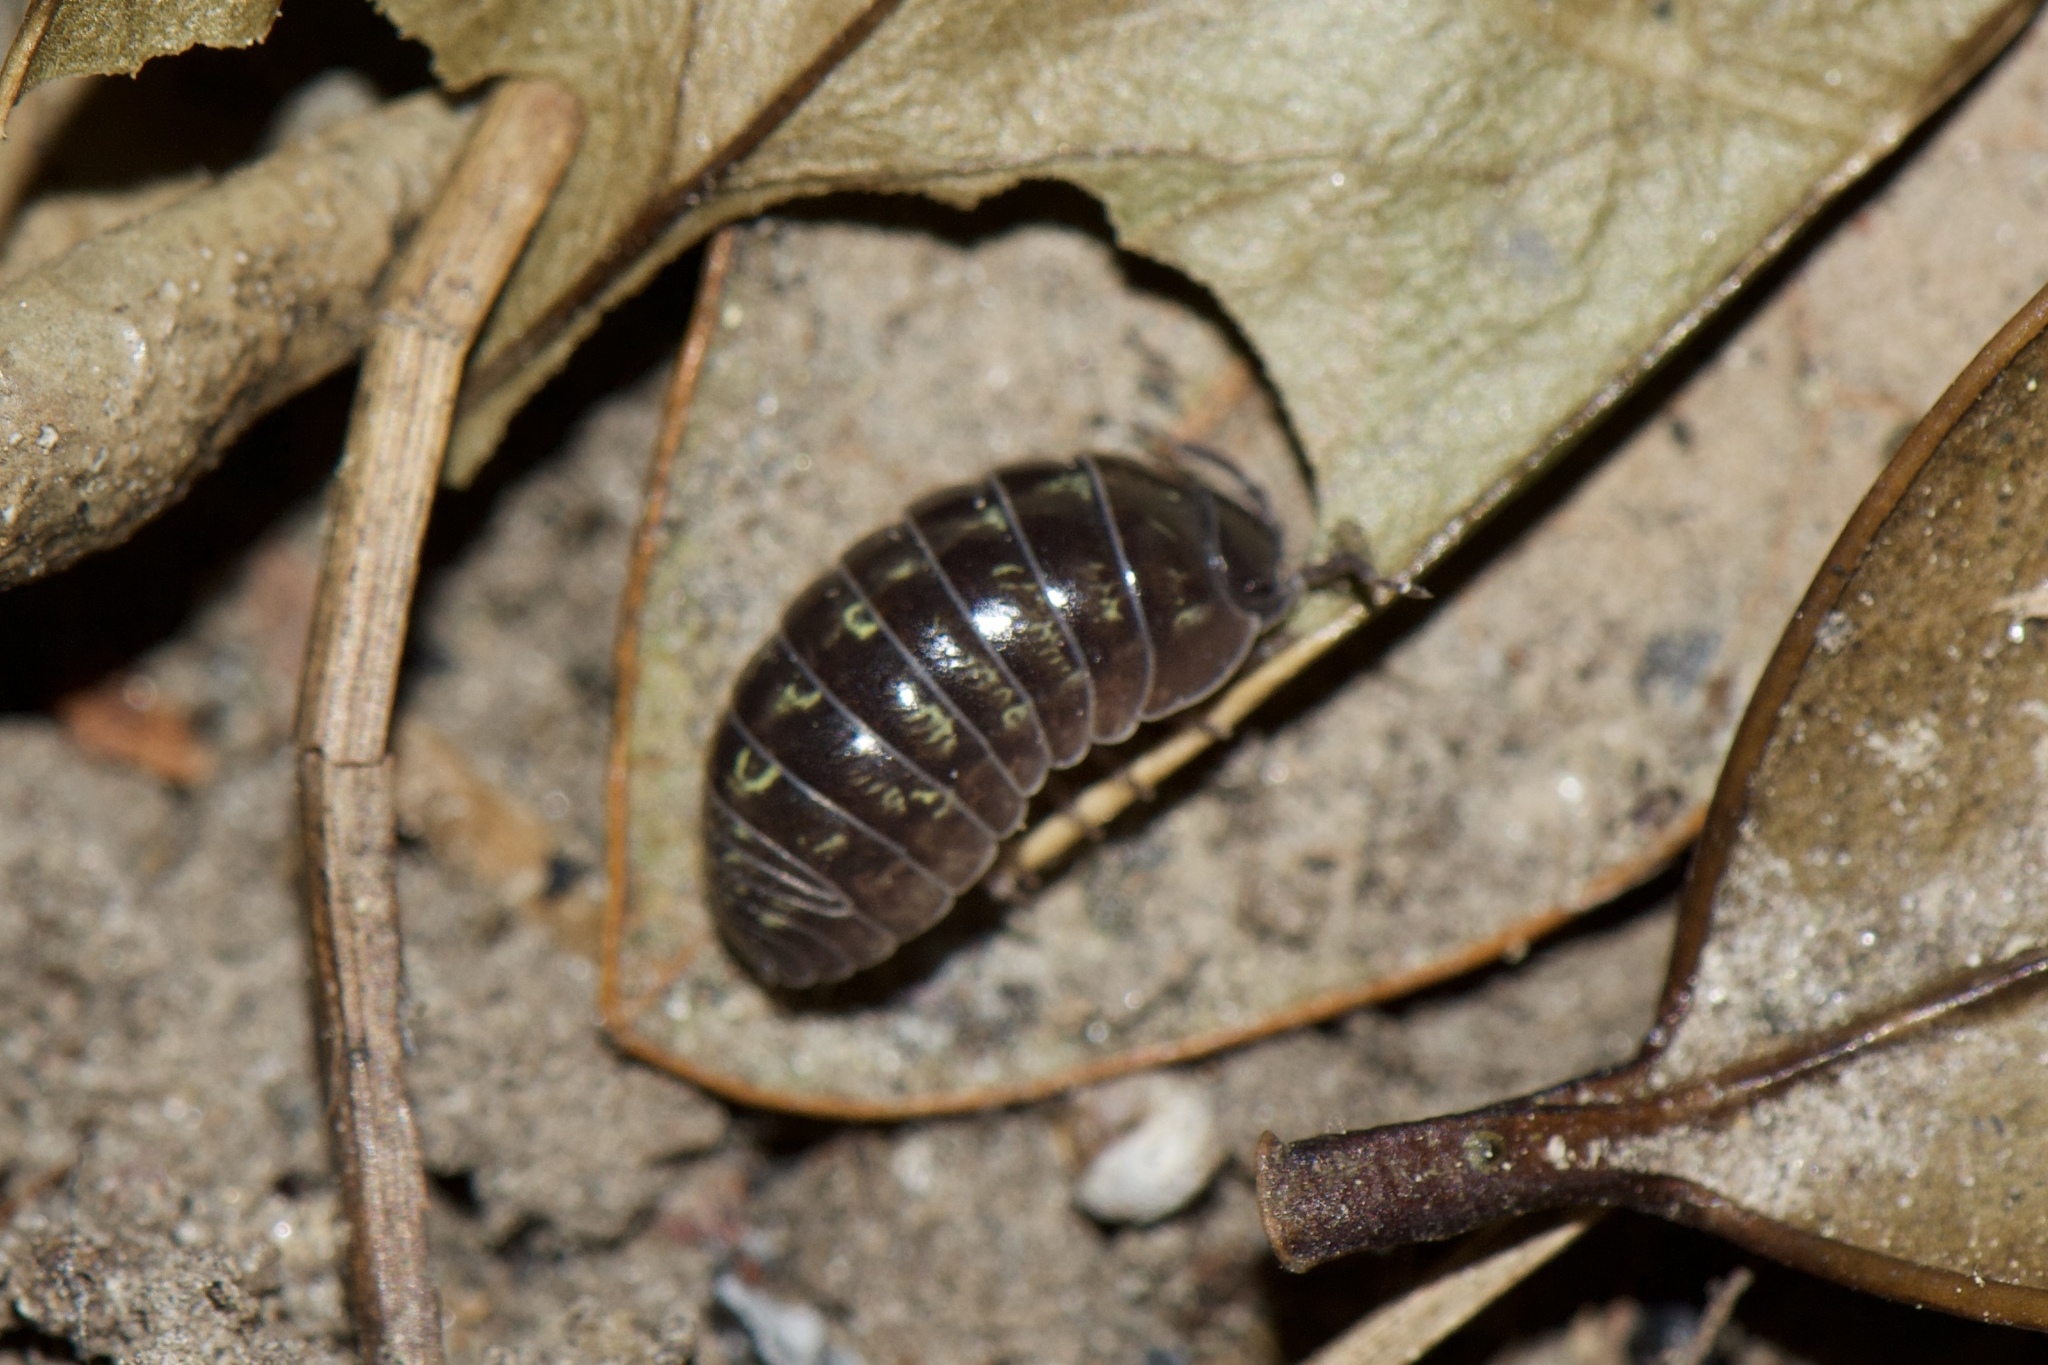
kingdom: Animalia
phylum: Arthropoda
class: Malacostraca
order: Isopoda
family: Armadillidiidae
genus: Armadillidium
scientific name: Armadillidium vulgare
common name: Common pill woodlouse
